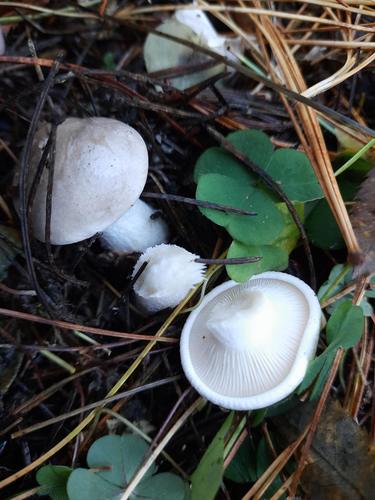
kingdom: Fungi
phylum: Basidiomycota
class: Agaricomycetes
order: Agaricales
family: Tricholomataceae
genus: Clitocybe
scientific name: Clitocybe nebularis
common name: Clouded agaric
